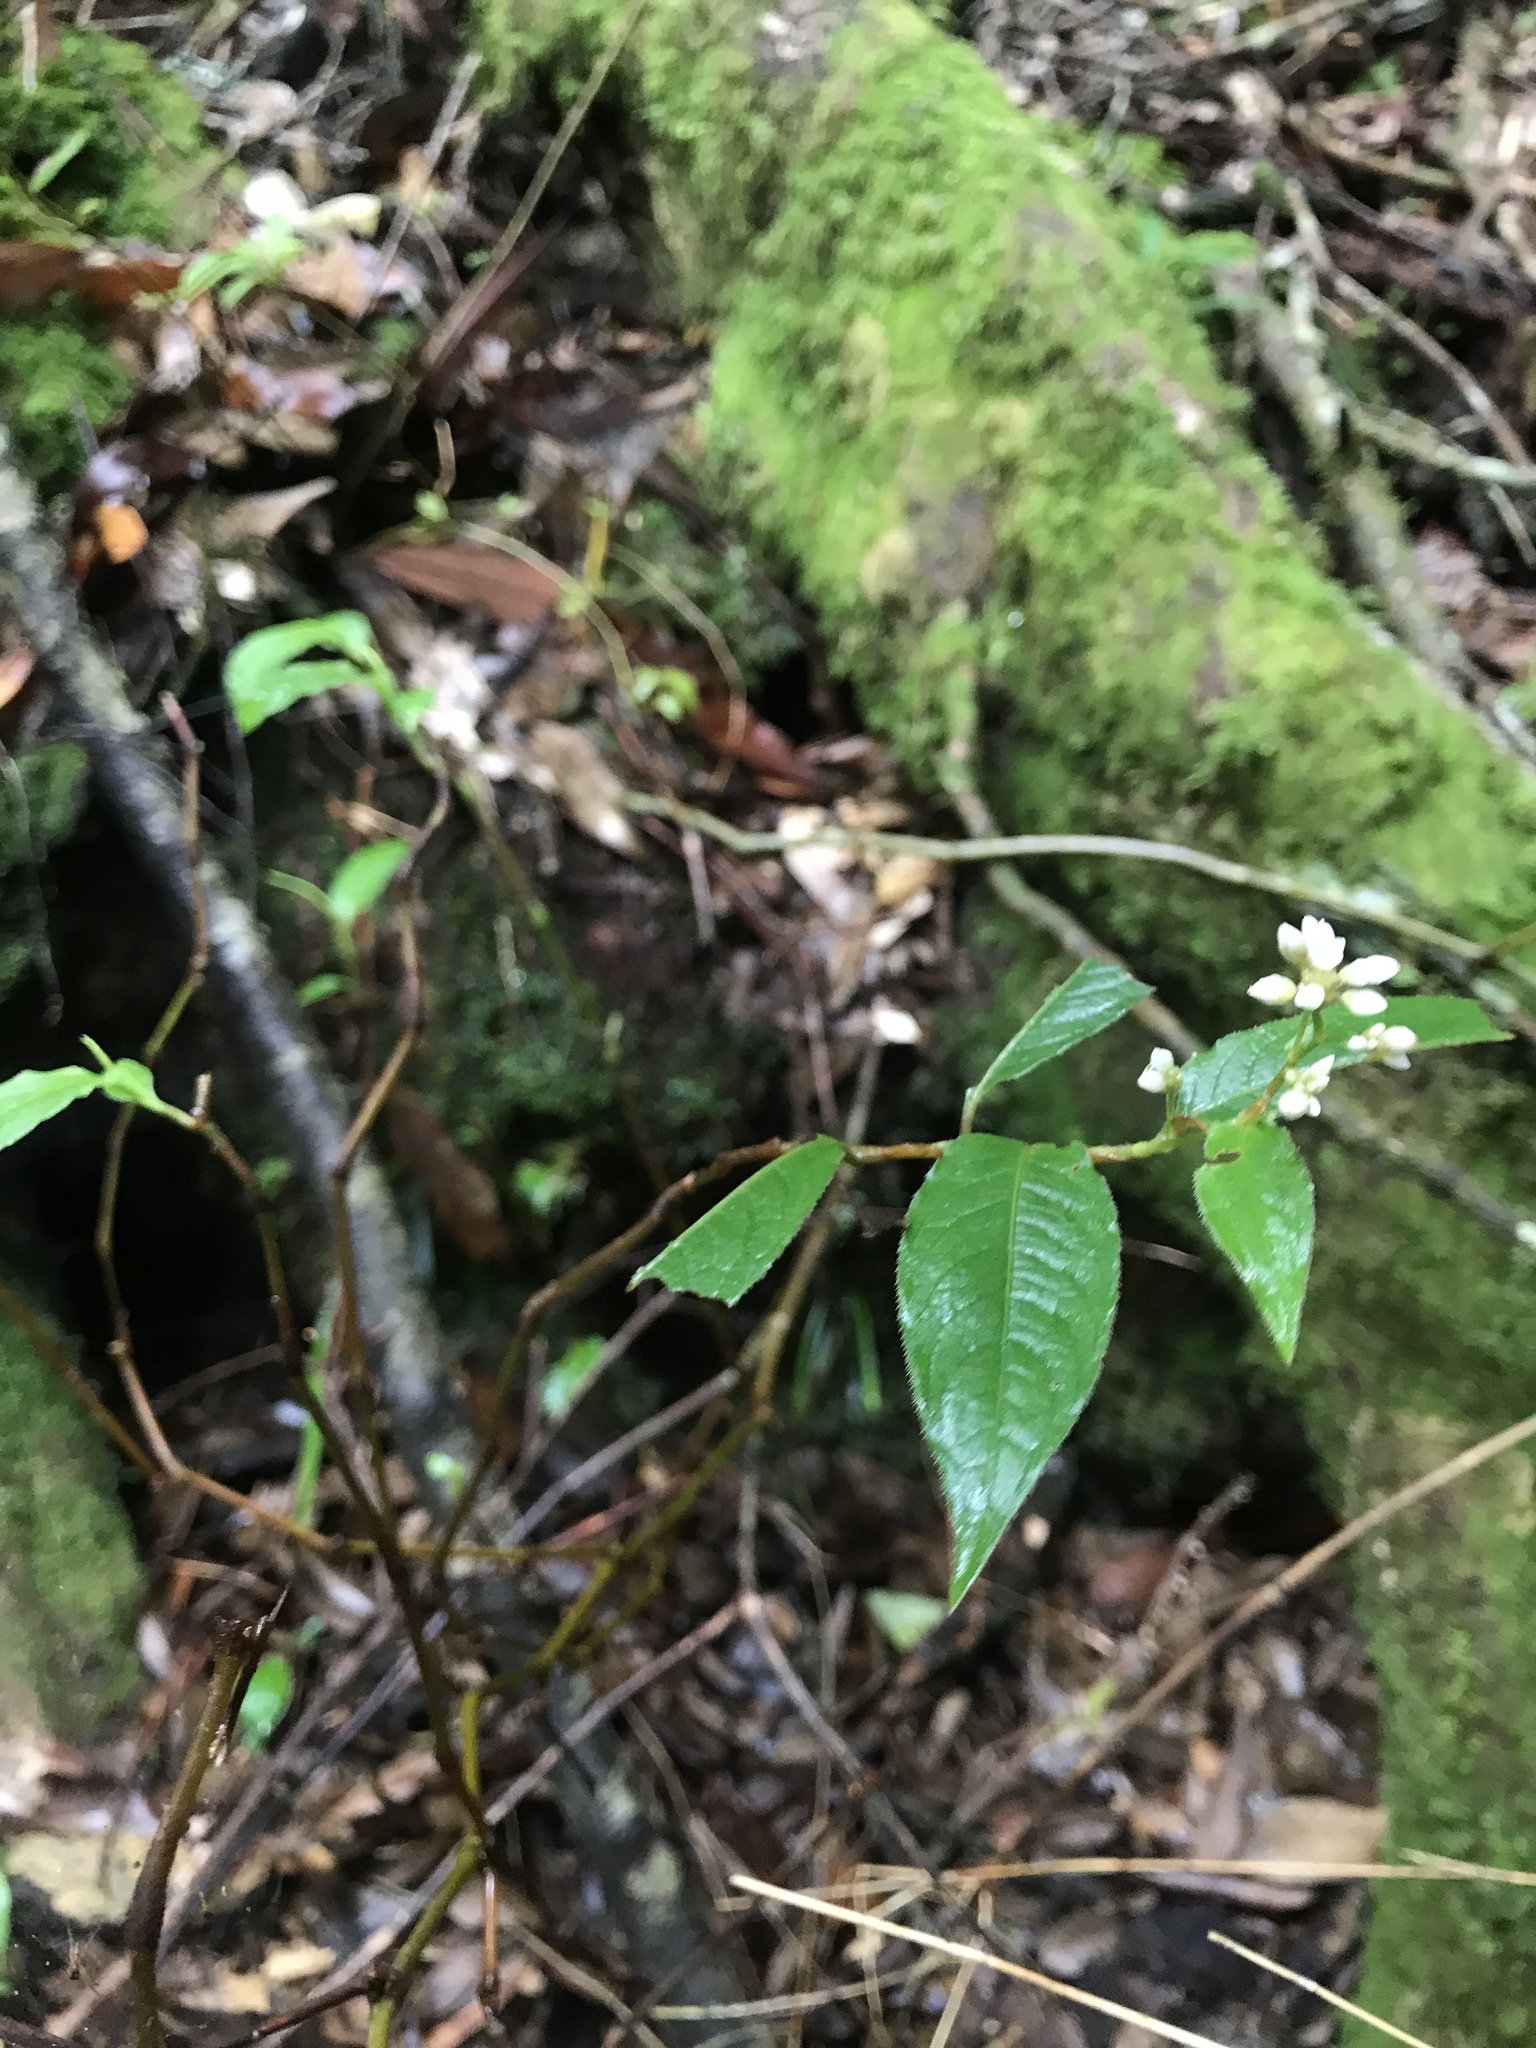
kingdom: Plantae
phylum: Tracheophyta
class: Magnoliopsida
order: Caryophyllales
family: Polygonaceae
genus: Persicaria
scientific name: Persicaria chinensis
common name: Chinese knotweed
